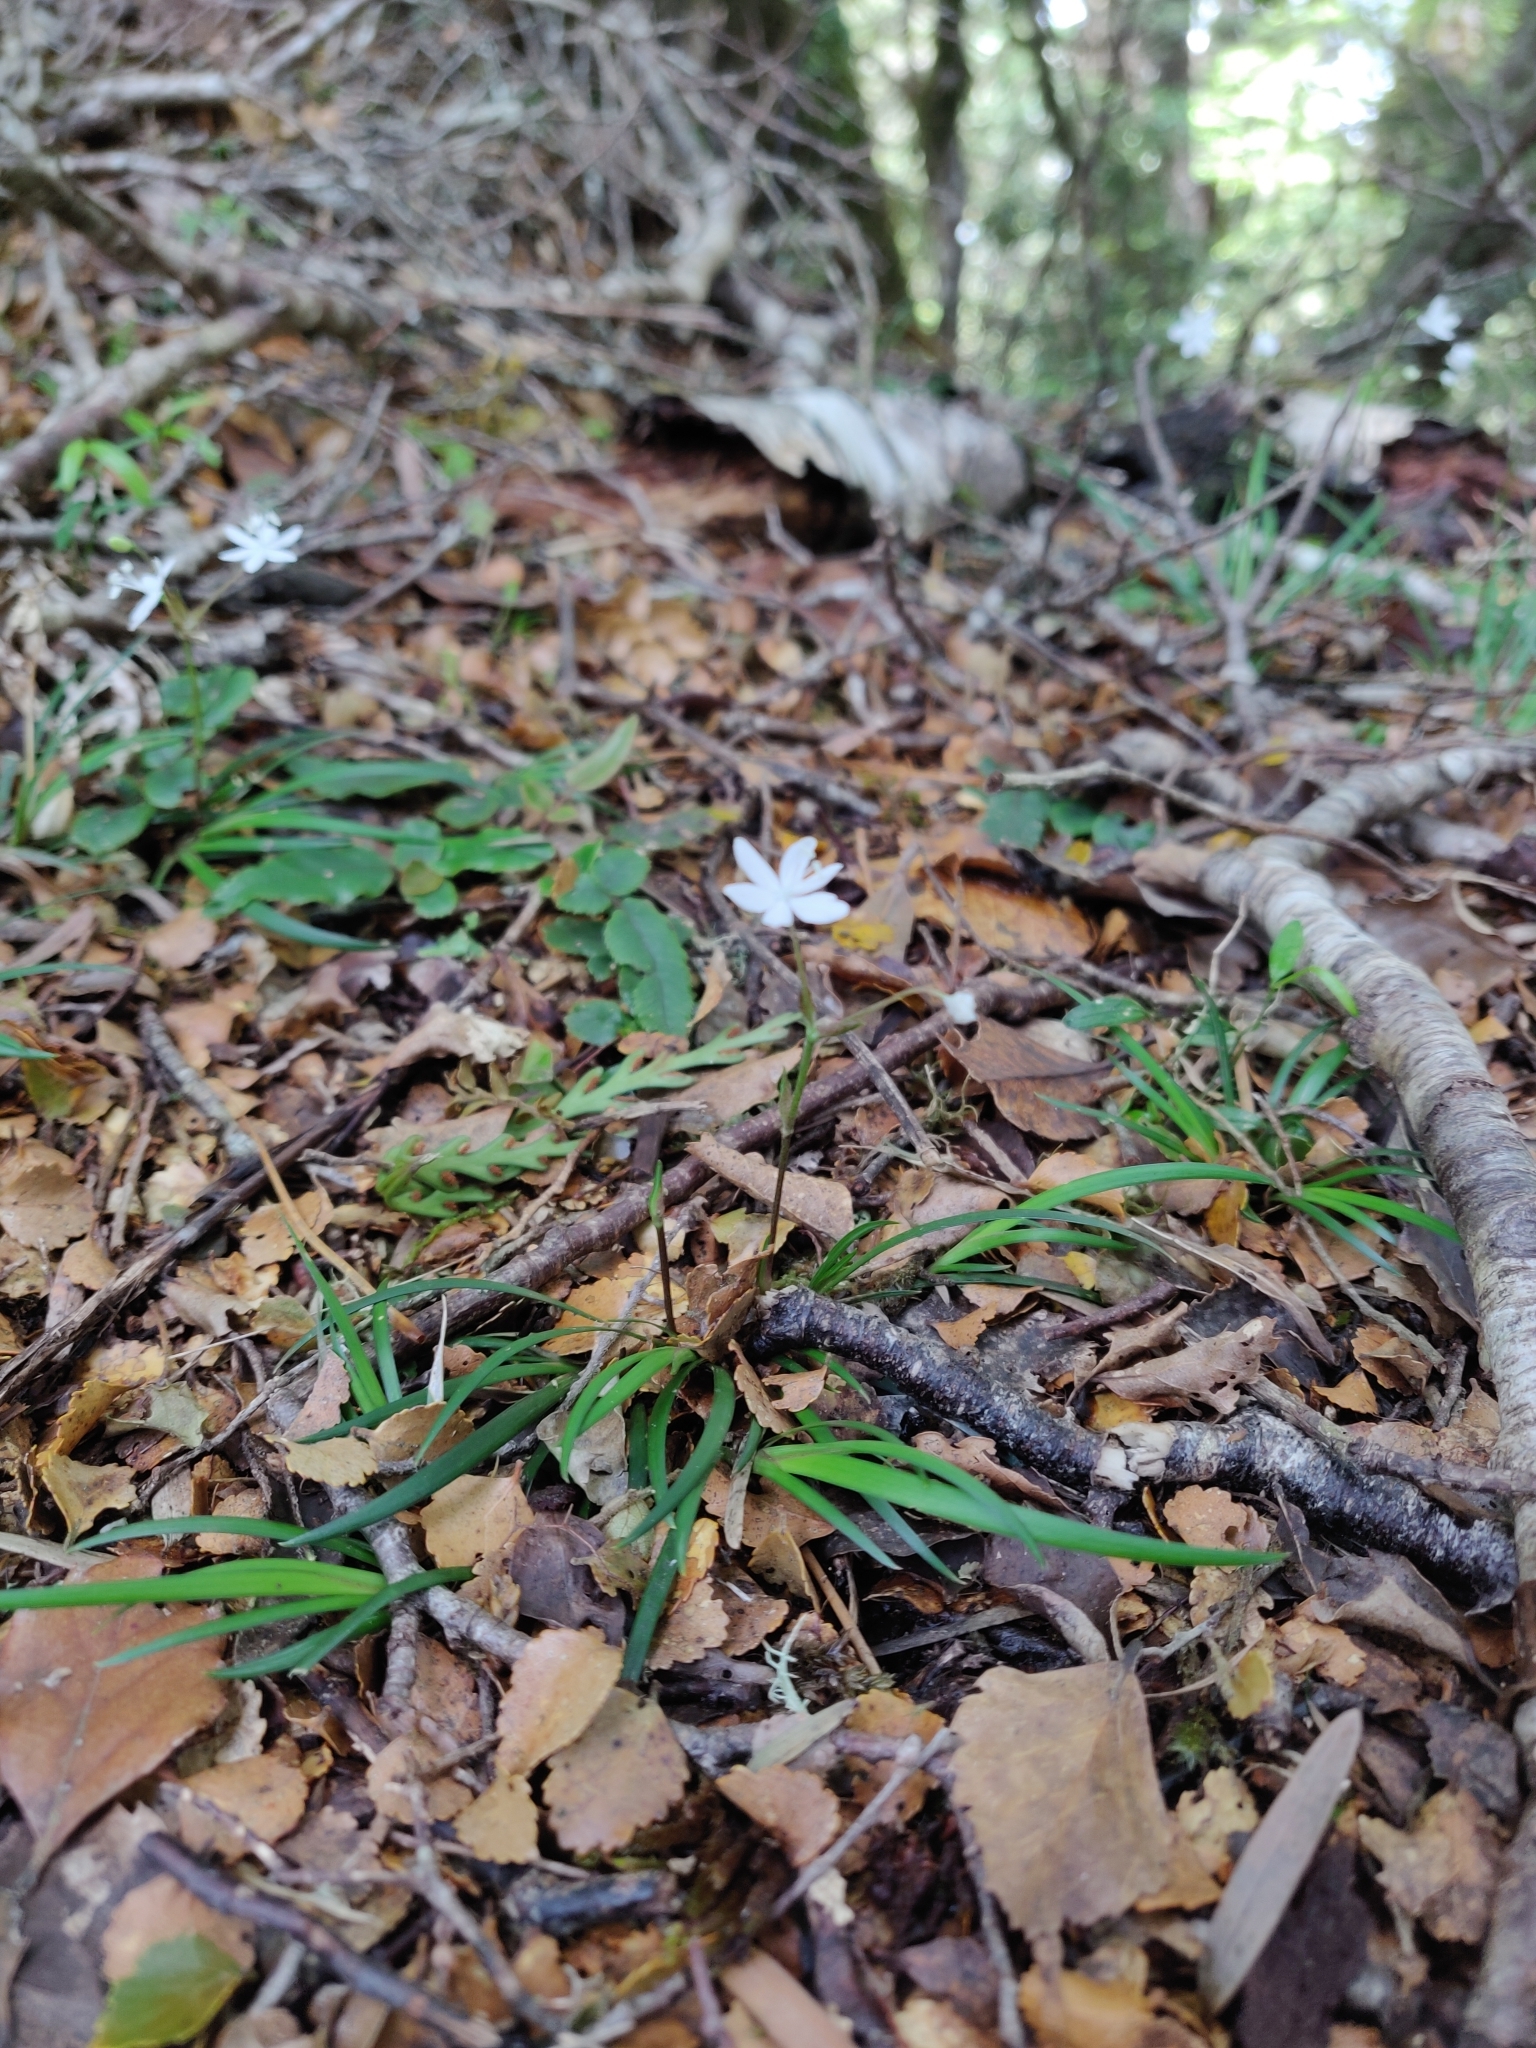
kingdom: Plantae
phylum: Tracheophyta
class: Liliopsida
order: Asparagales
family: Iridaceae
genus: Libertia
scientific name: Libertia micrantha
